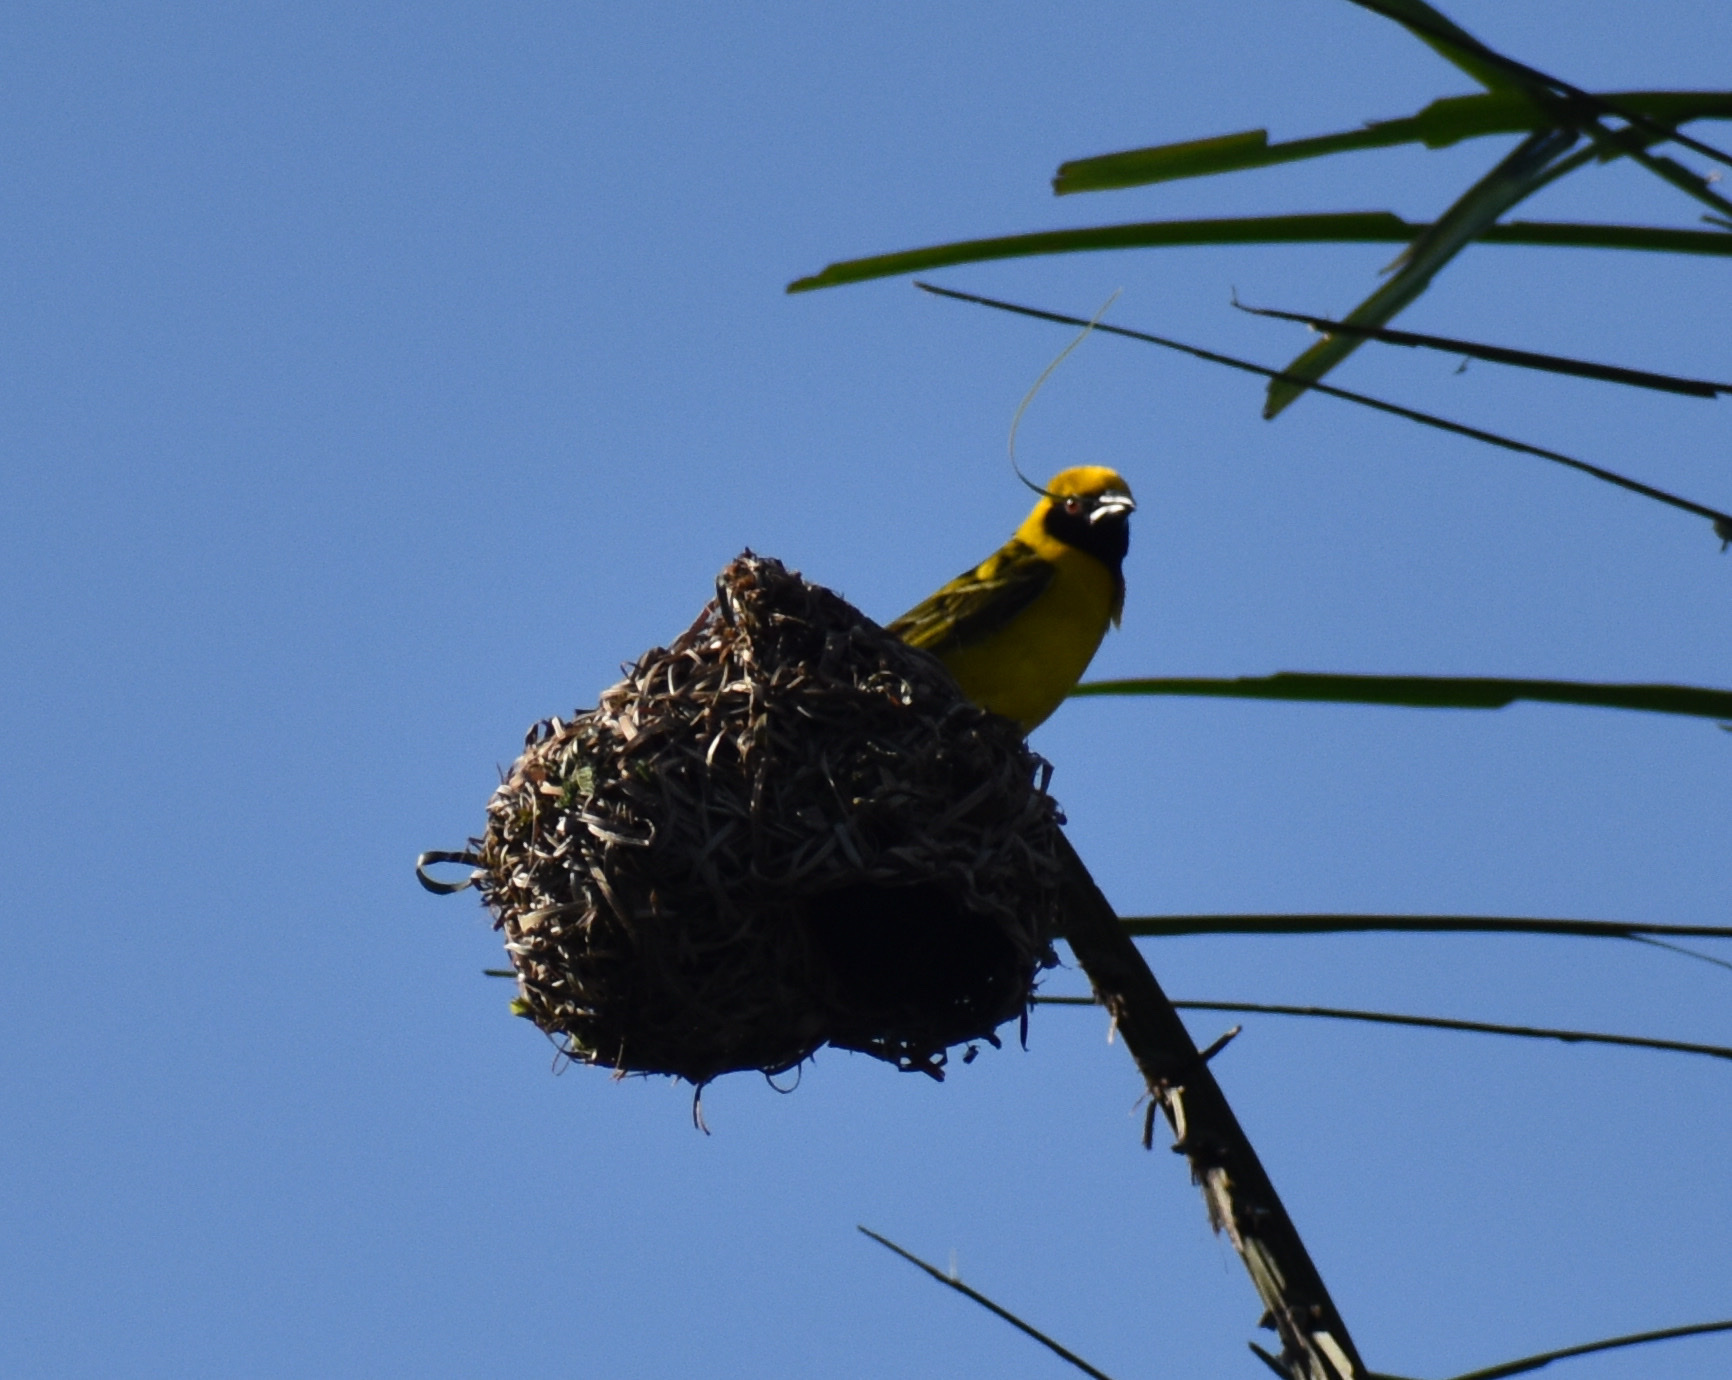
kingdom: Animalia
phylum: Chordata
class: Aves
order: Passeriformes
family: Ploceidae
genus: Ploceus
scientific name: Ploceus cucullatus
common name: Village weaver
